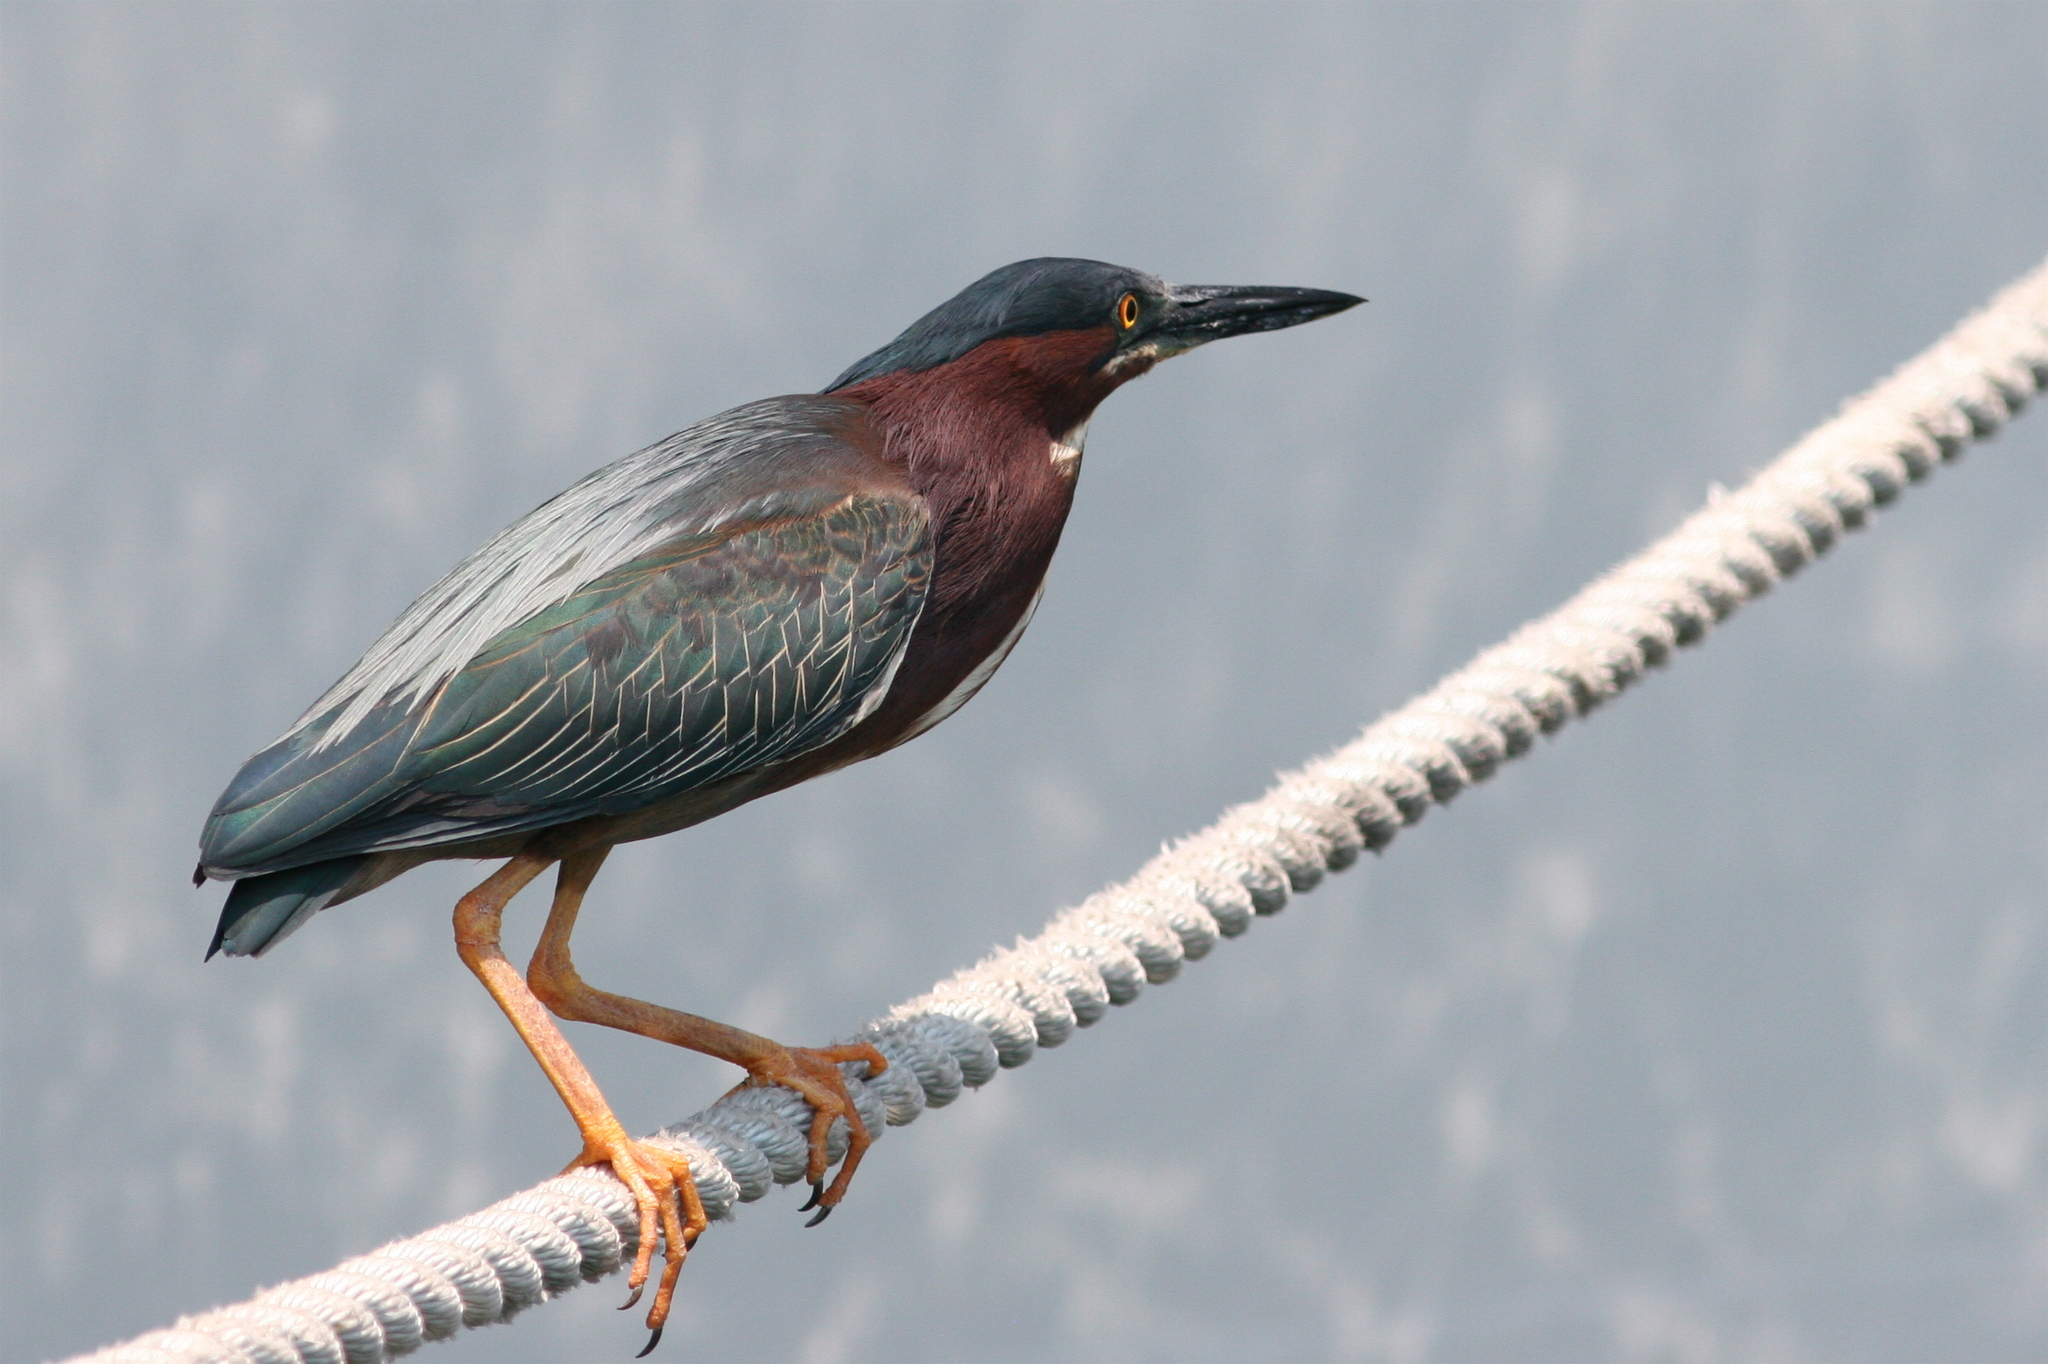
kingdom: Animalia
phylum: Chordata
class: Aves
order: Pelecaniformes
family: Ardeidae
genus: Butorides
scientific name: Butorides virescens
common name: Green heron
